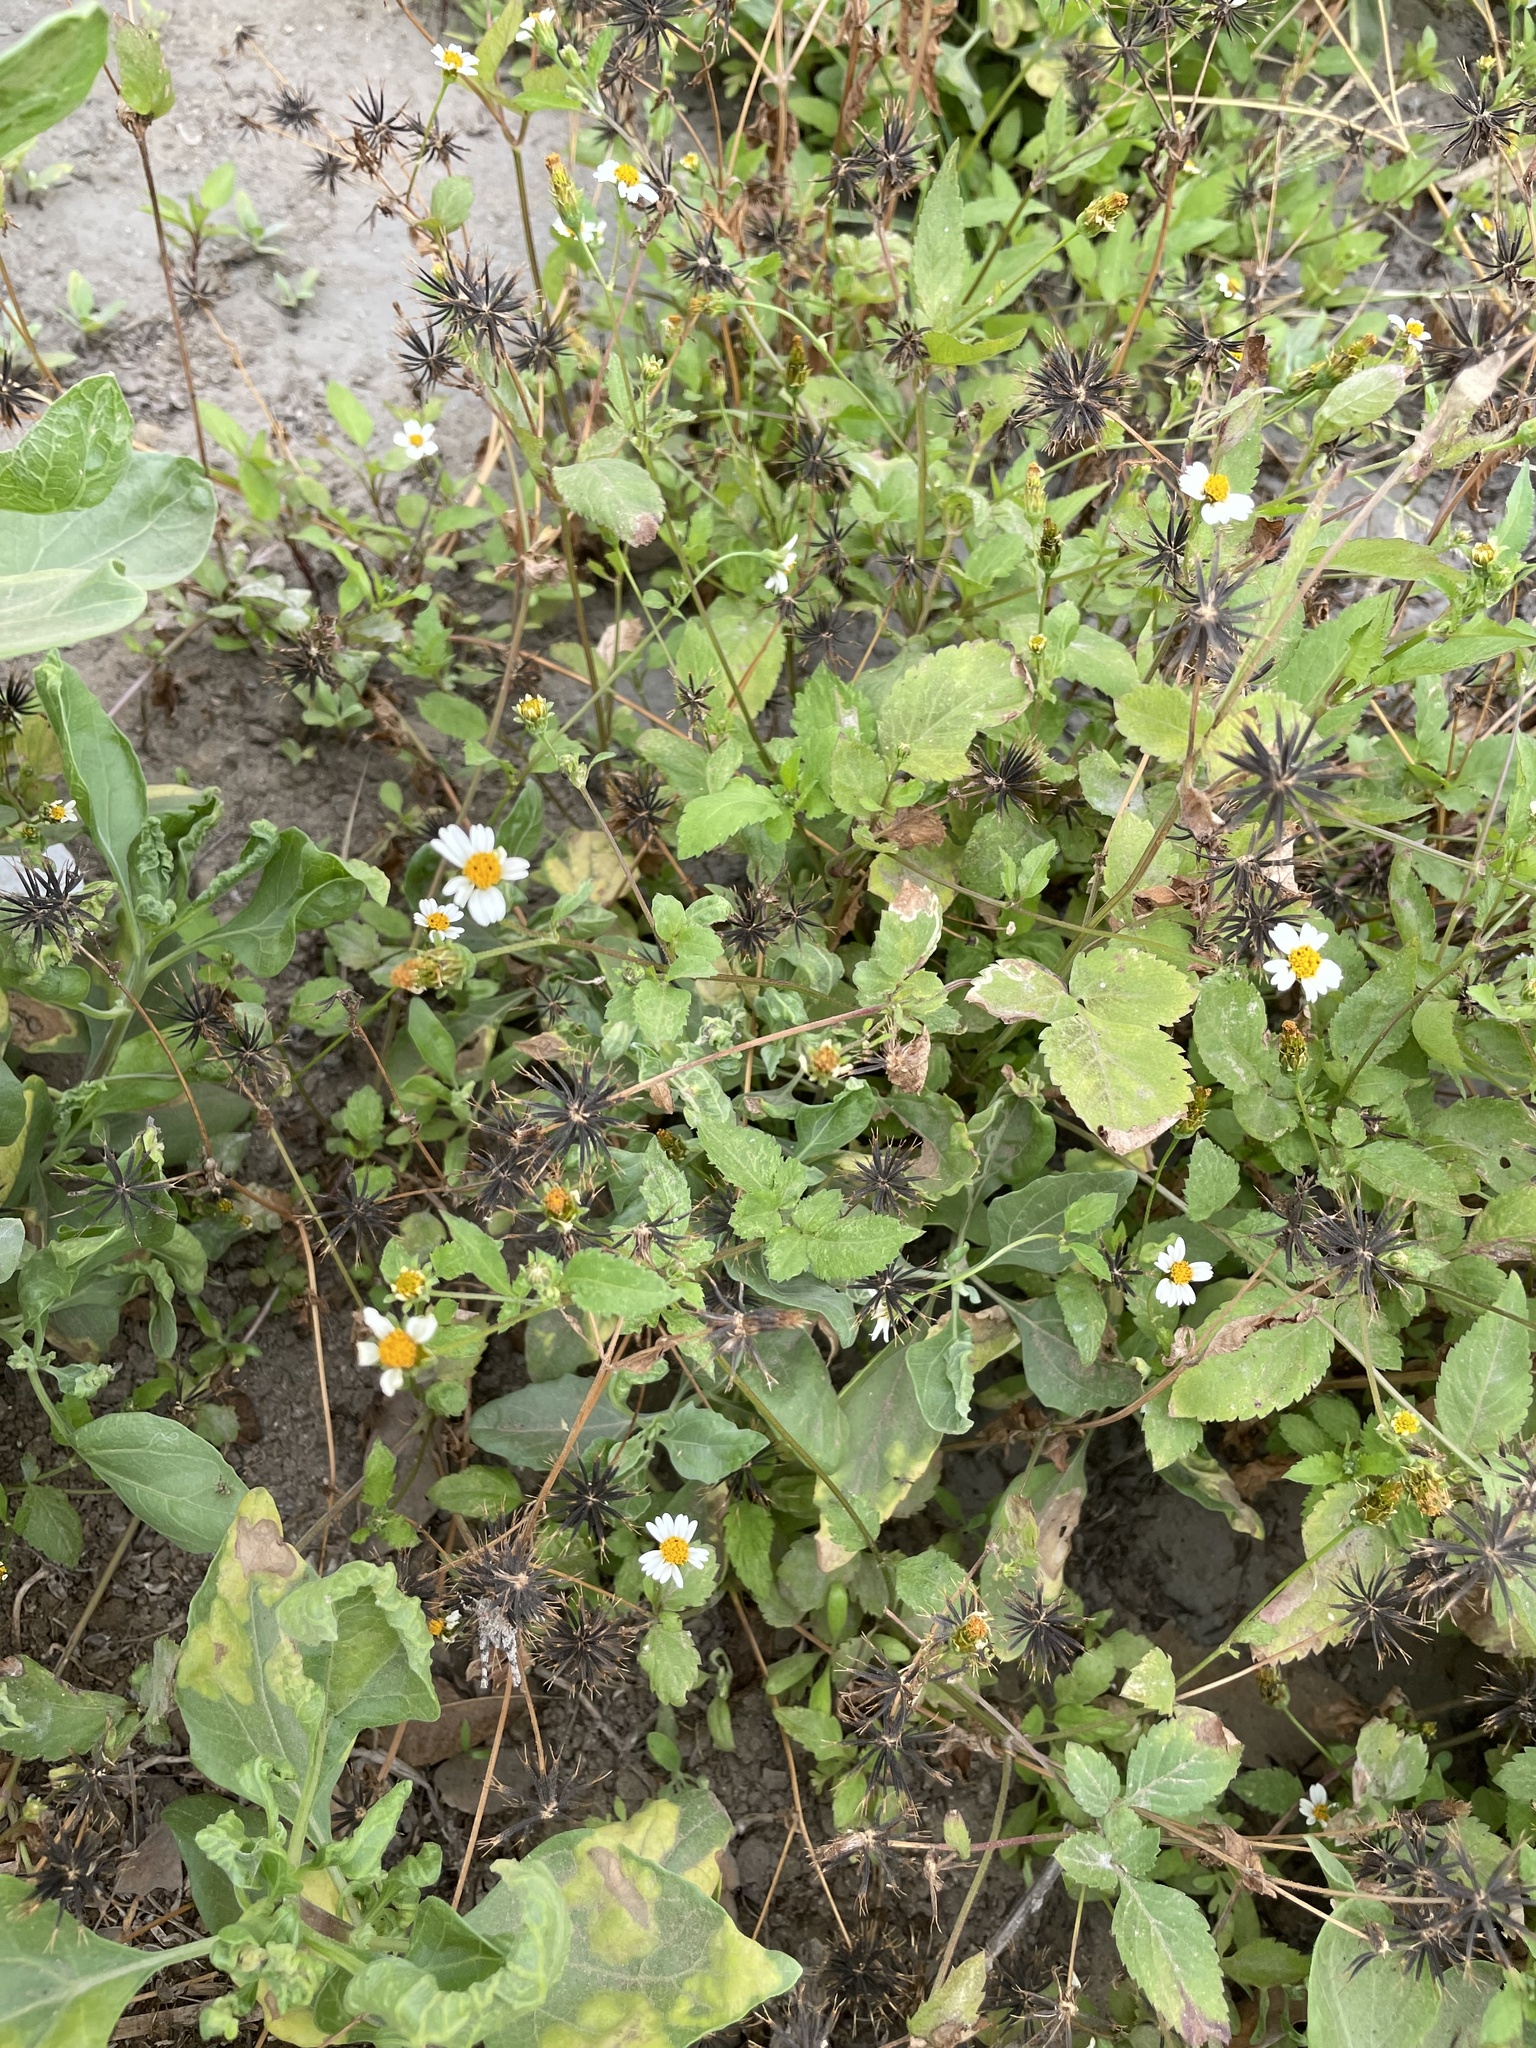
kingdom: Plantae
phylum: Tracheophyta
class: Magnoliopsida
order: Asterales
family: Asteraceae
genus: Bidens
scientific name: Bidens pilosa
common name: Black-jack
